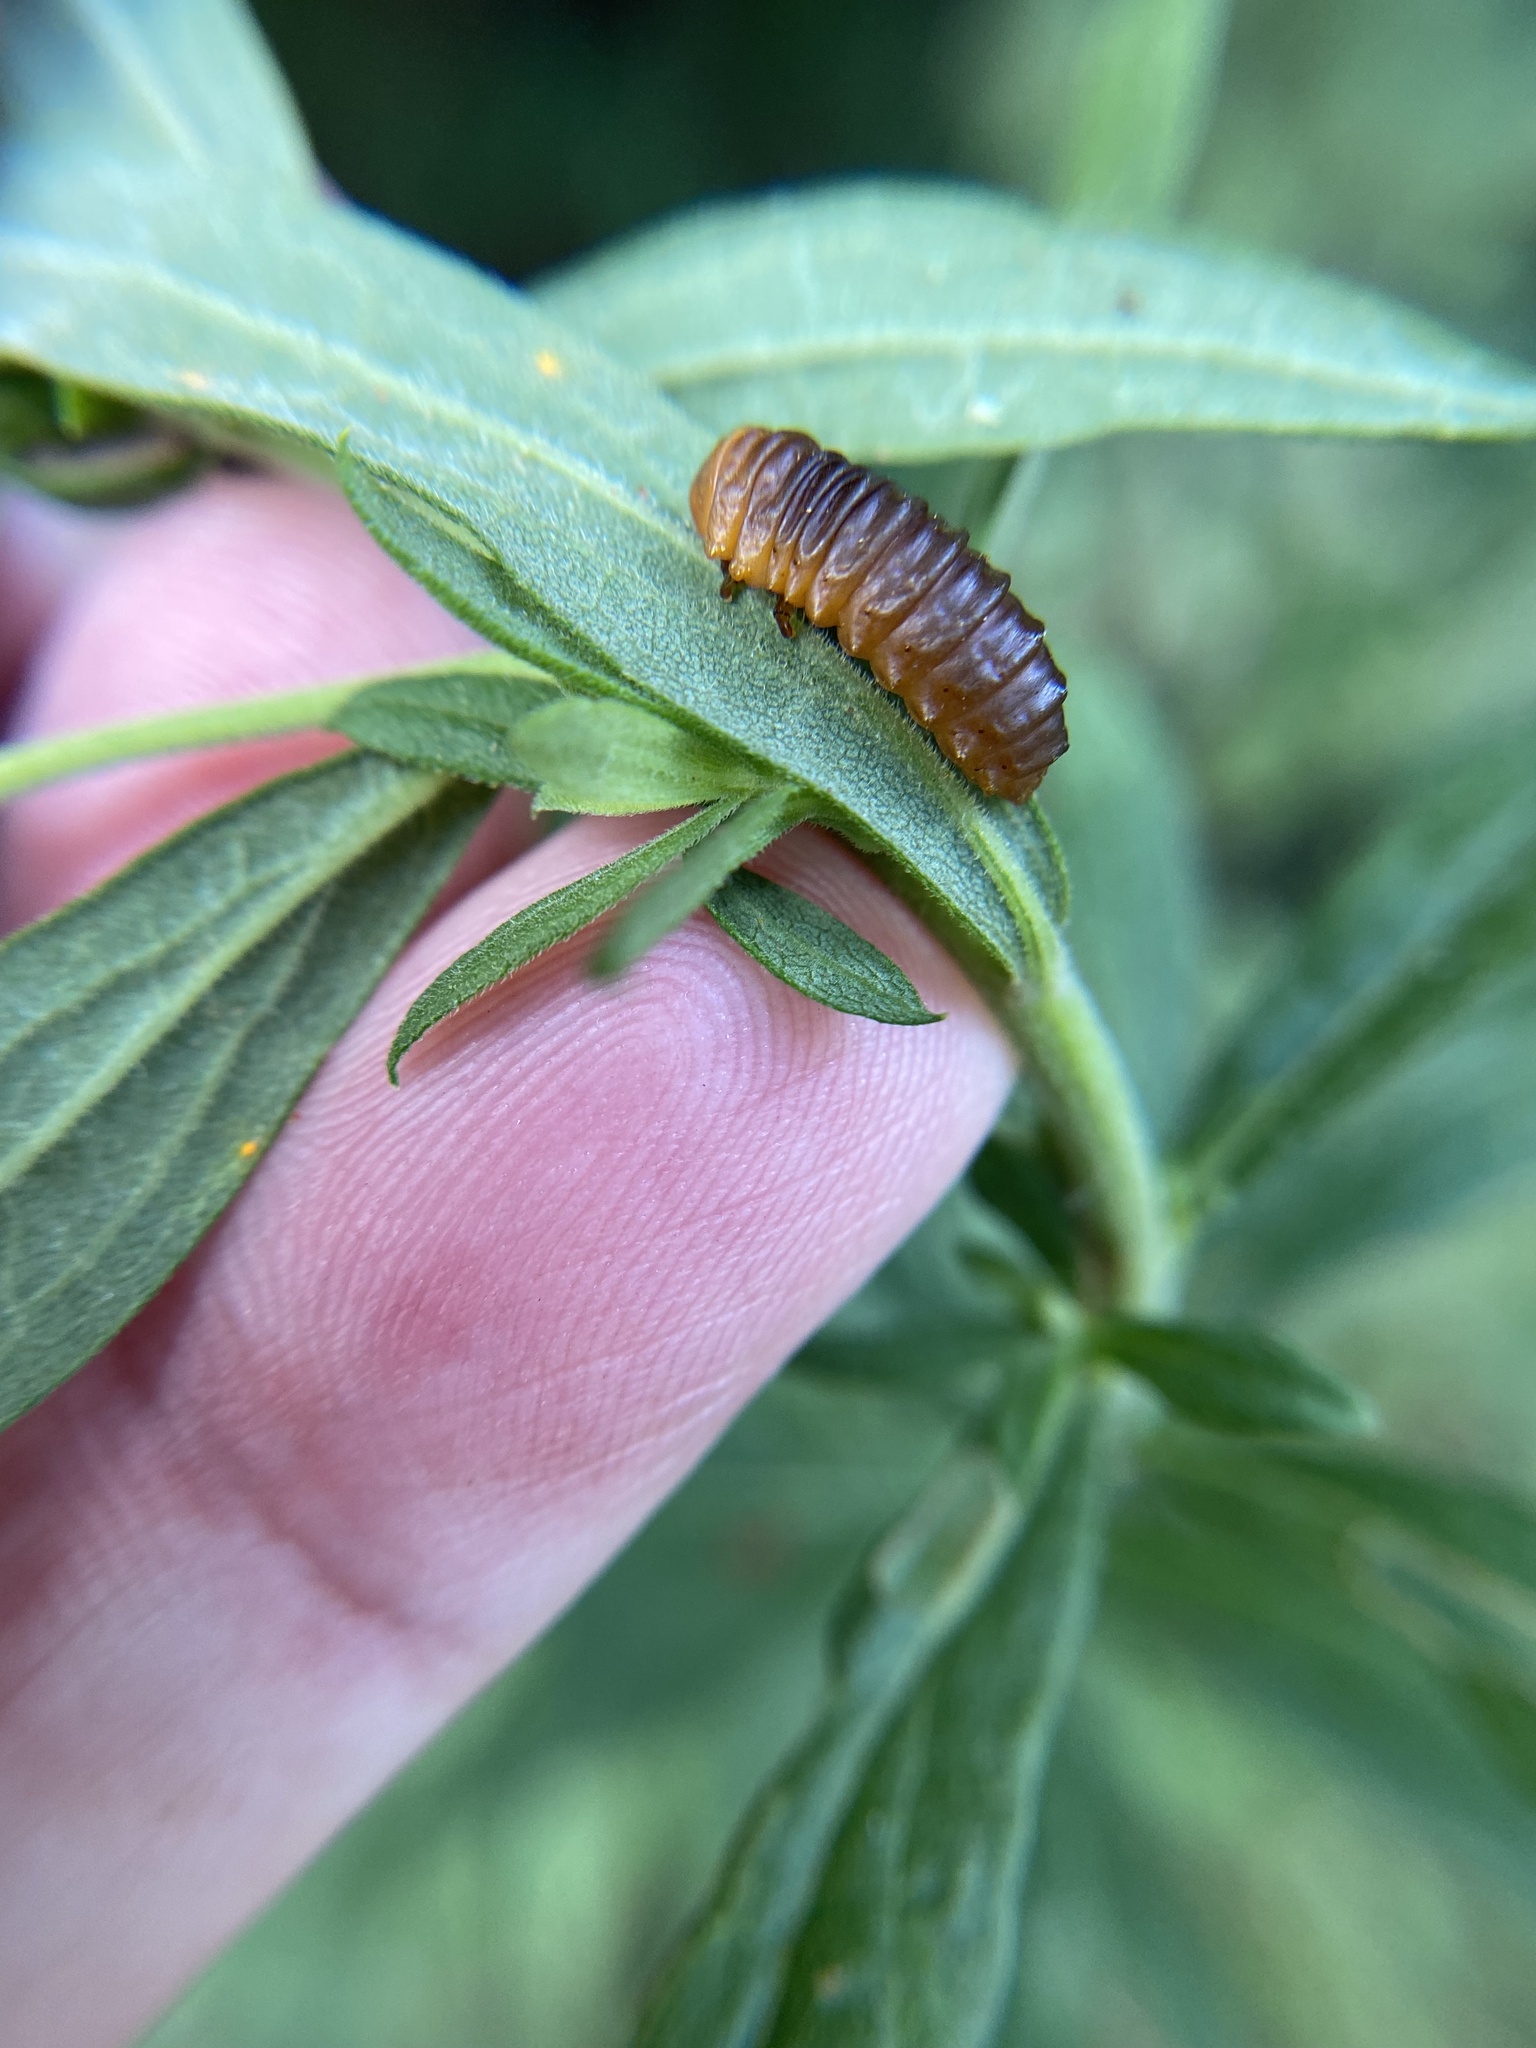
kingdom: Animalia
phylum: Arthropoda
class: Insecta
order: Coleoptera
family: Chrysomelidae
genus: Monocesta
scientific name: Monocesta coryli
